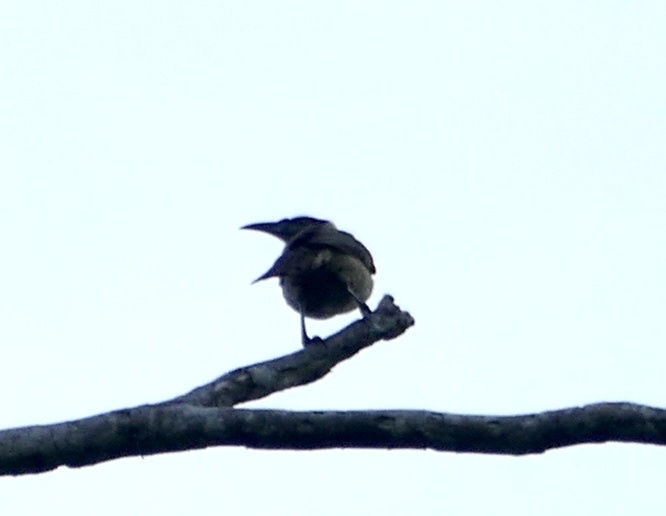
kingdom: Animalia
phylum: Chordata
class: Aves
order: Passeriformes
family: Meliphagidae
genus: Philemon
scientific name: Philemon buceroides
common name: Helmeted friarbird
